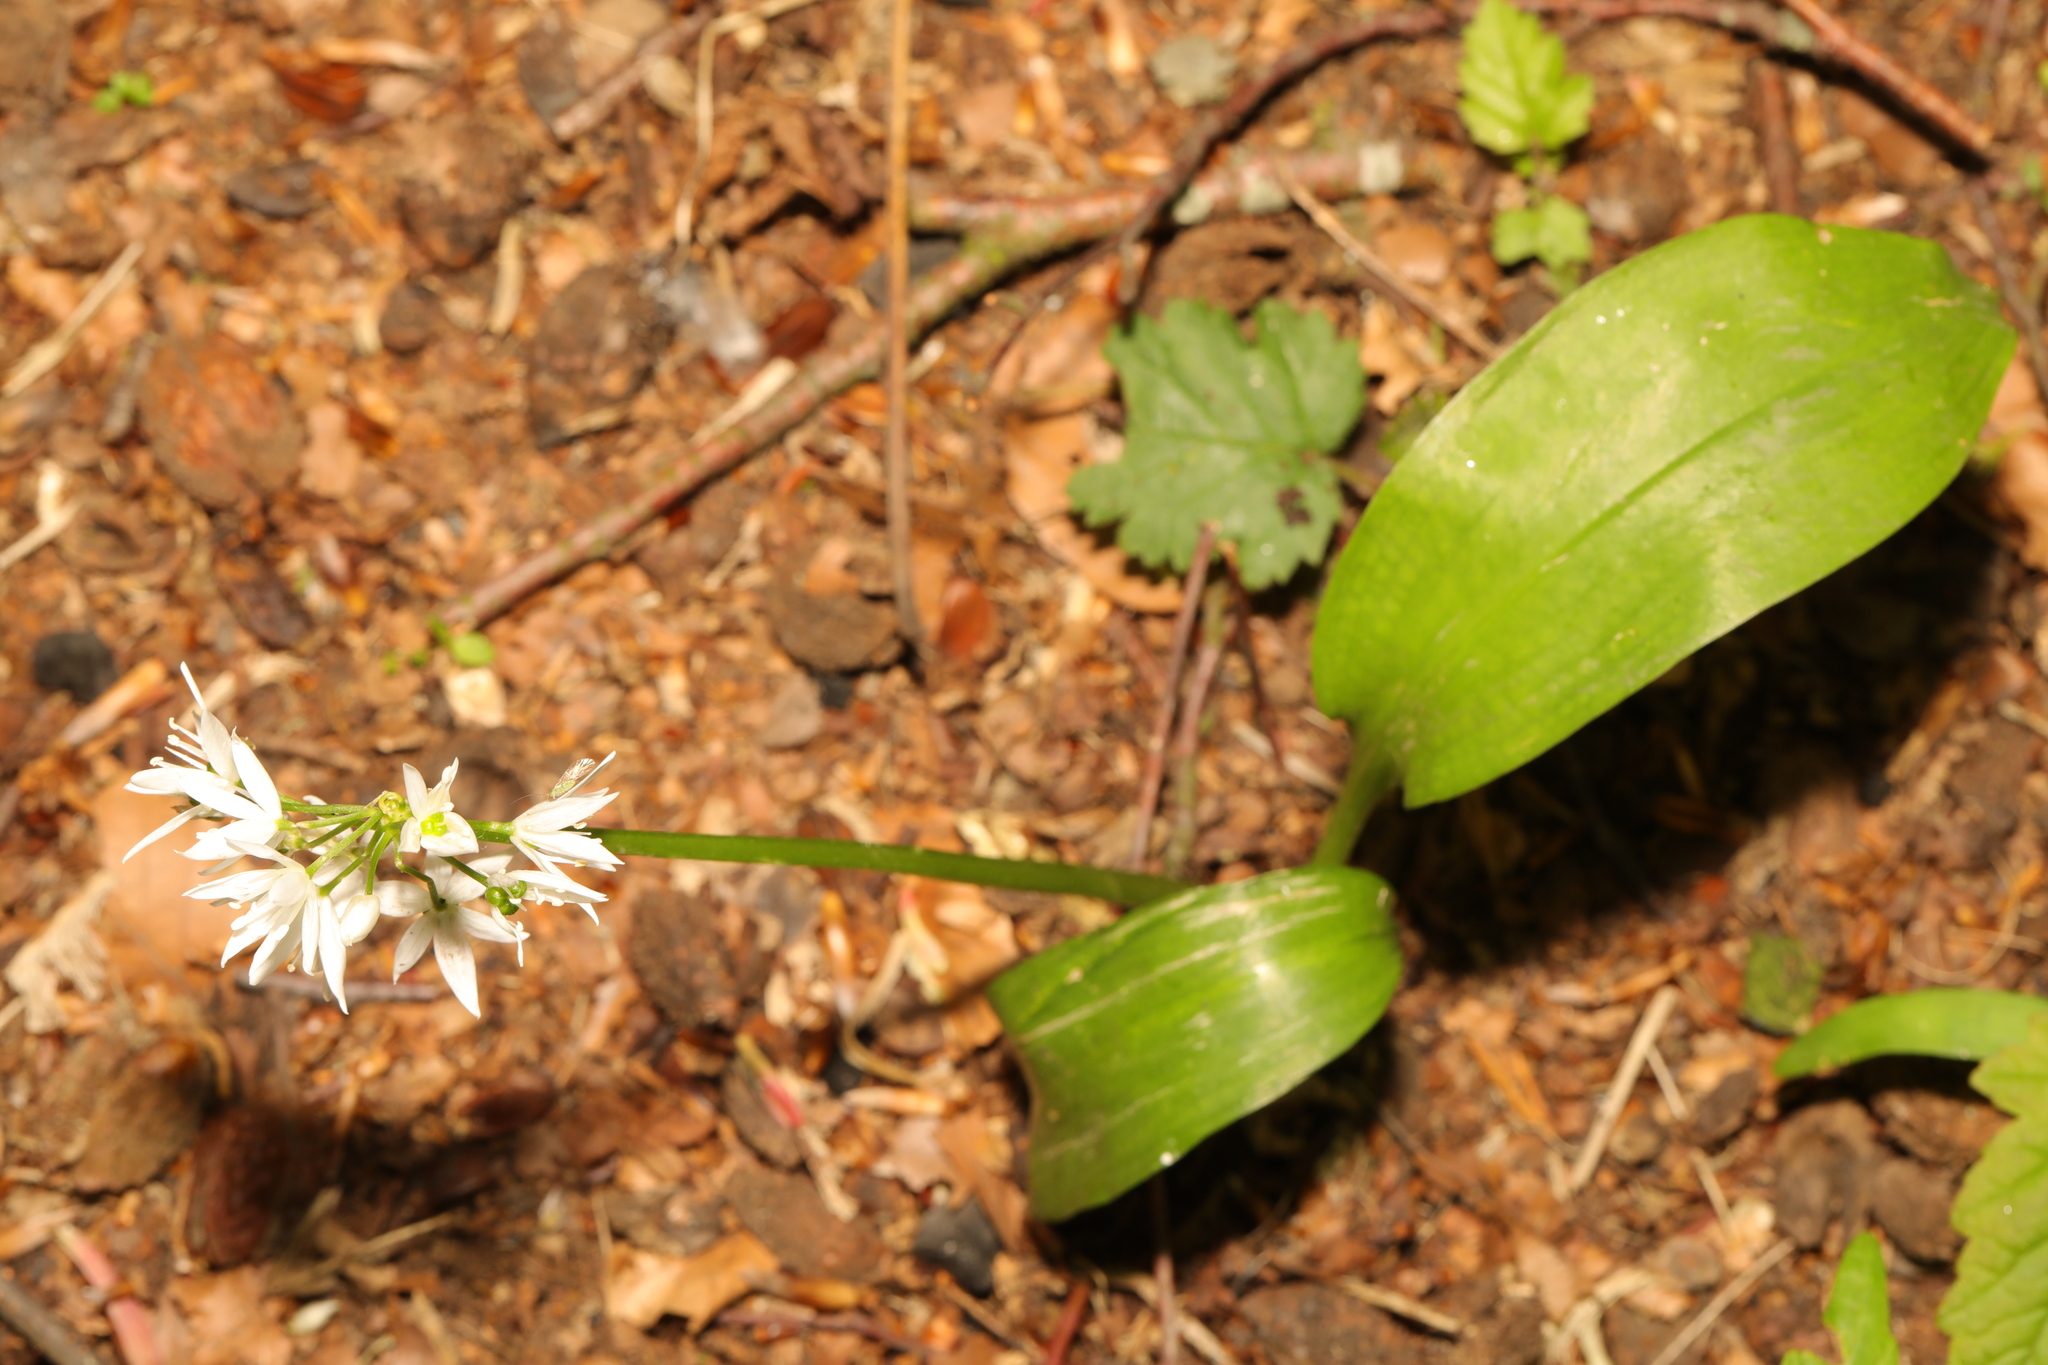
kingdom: Plantae
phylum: Tracheophyta
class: Liliopsida
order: Asparagales
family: Amaryllidaceae
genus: Allium
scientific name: Allium ursinum
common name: Ramsons
